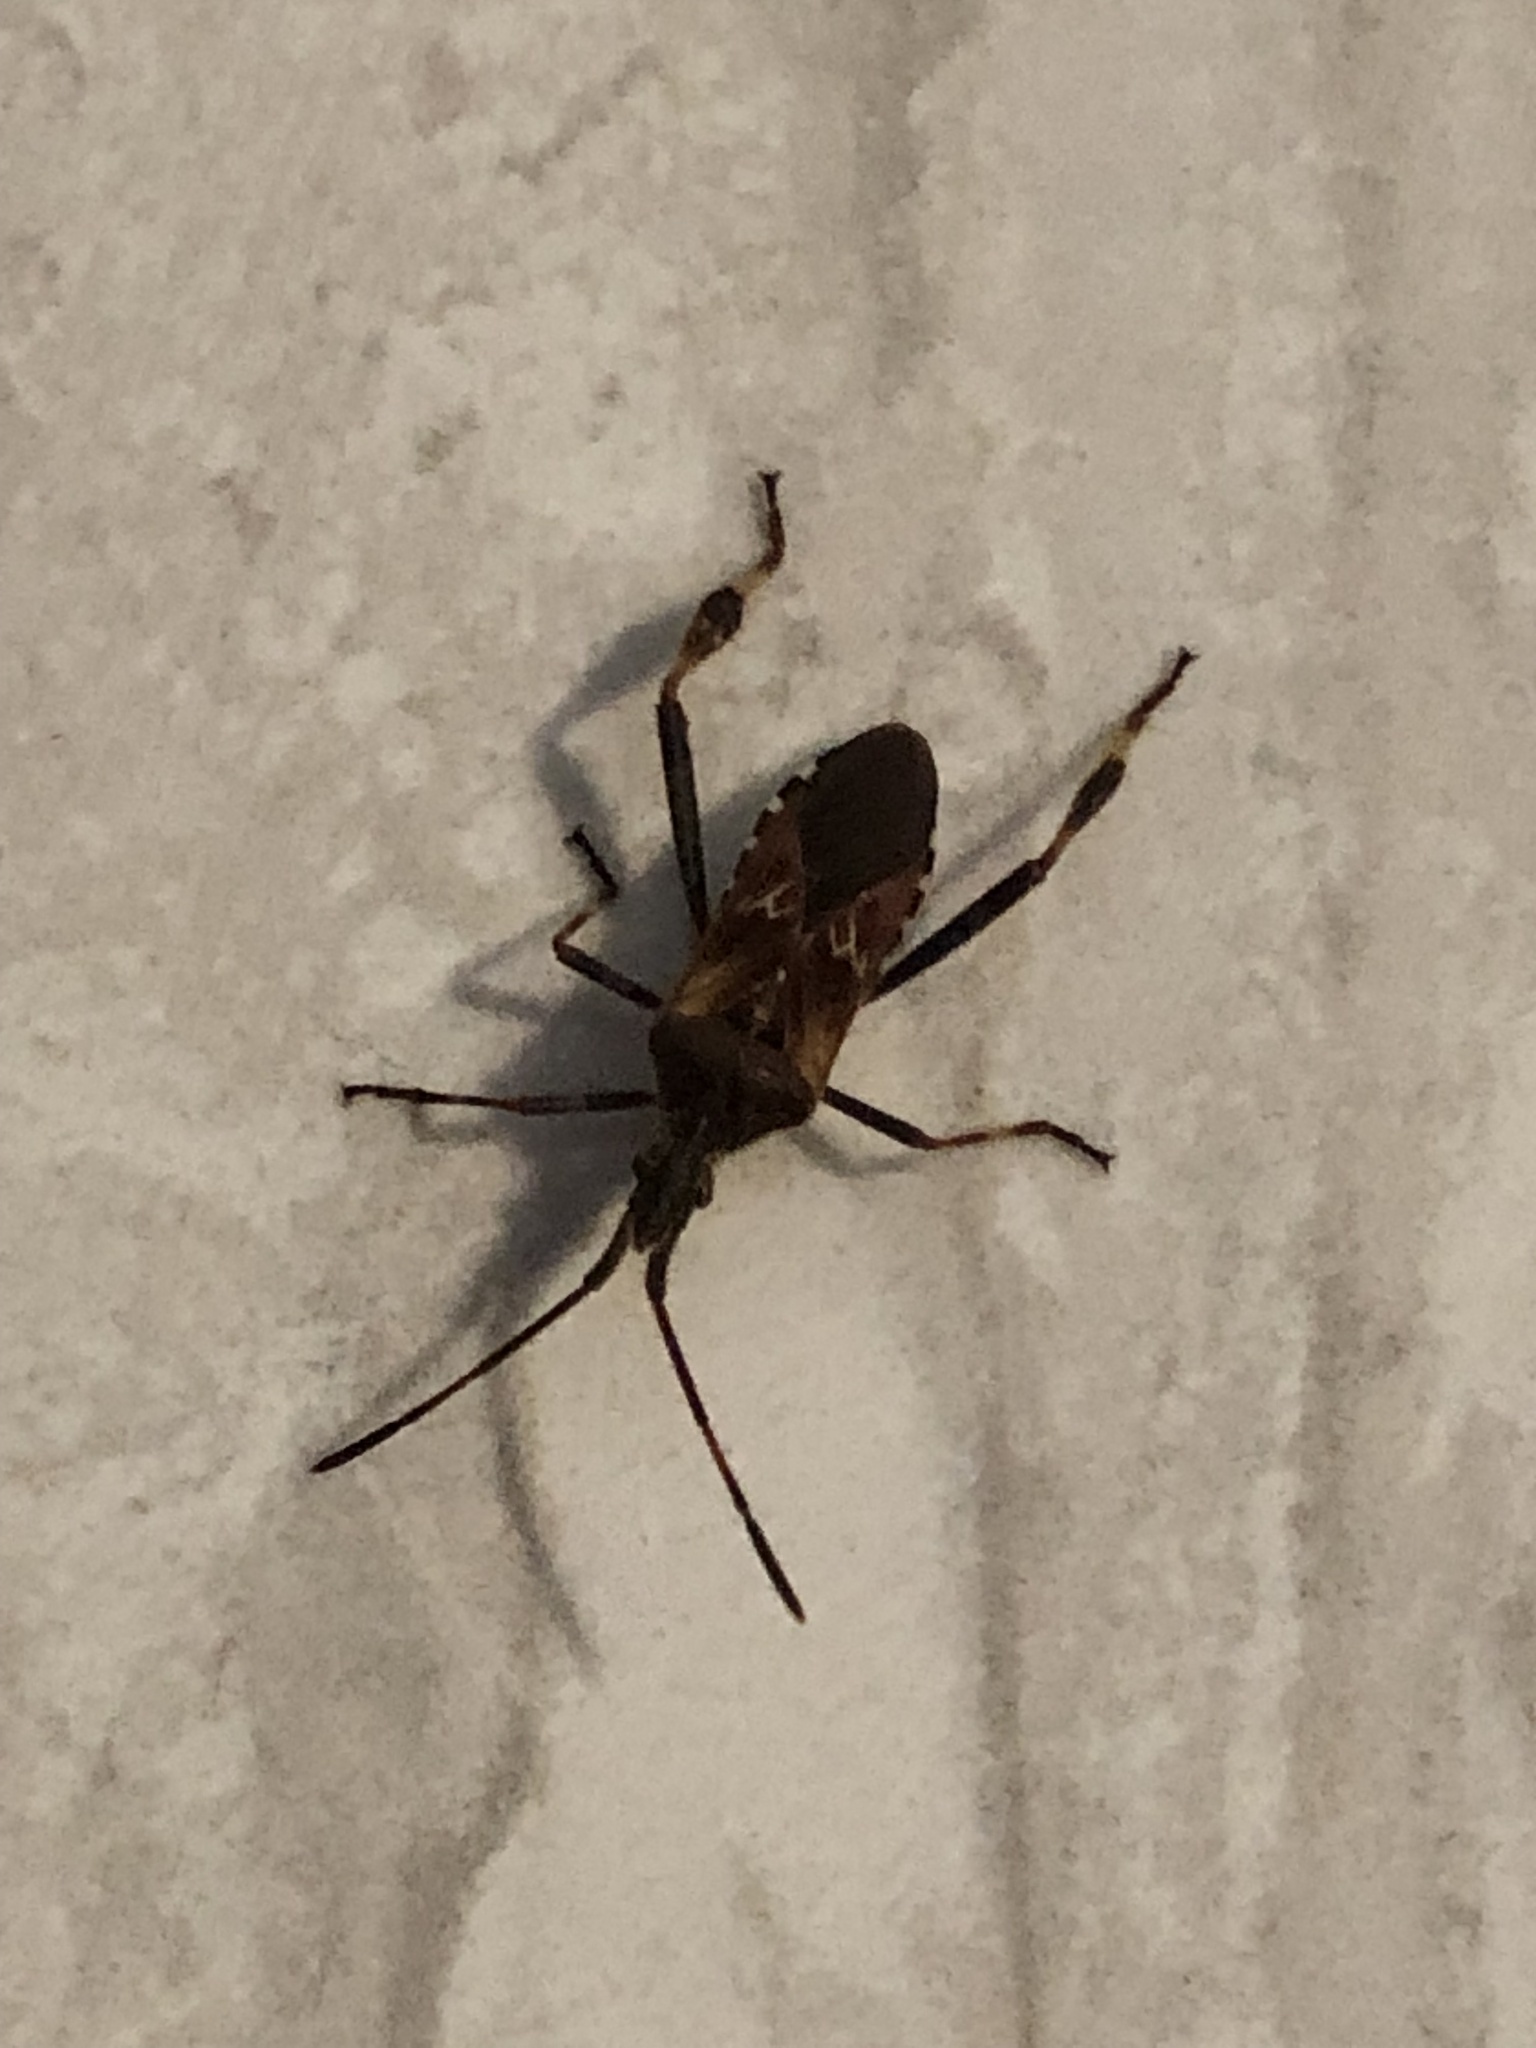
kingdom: Animalia
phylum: Arthropoda
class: Insecta
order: Hemiptera
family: Coreidae
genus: Leptoglossus
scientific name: Leptoglossus occidentalis
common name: Western conifer-seed bug
